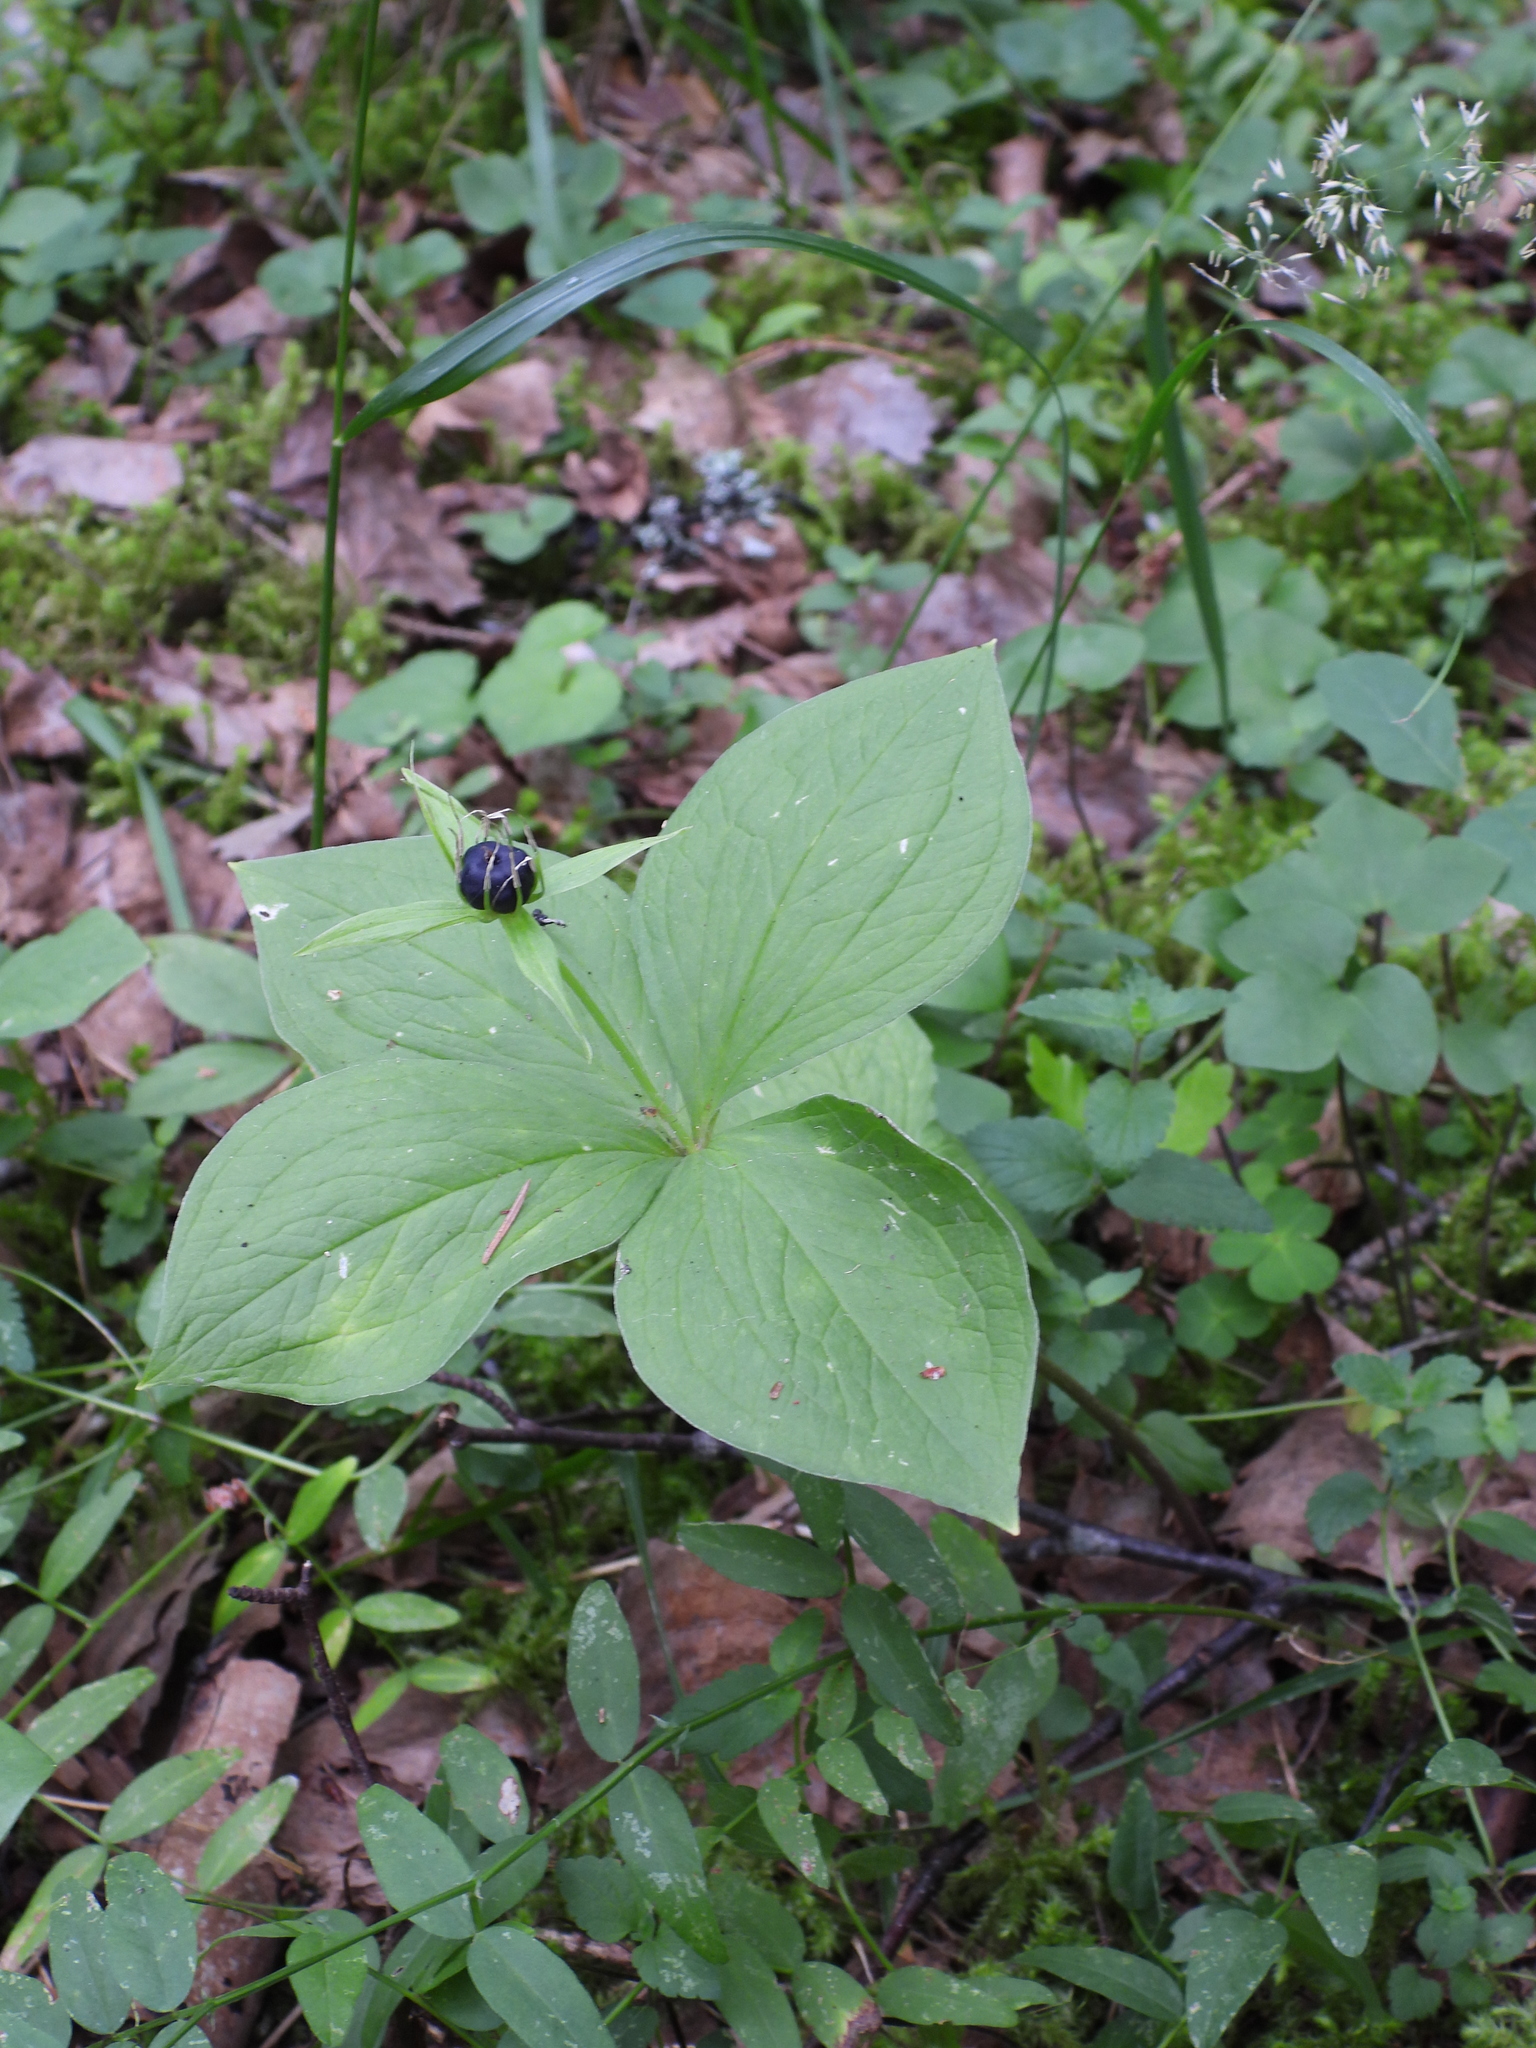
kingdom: Plantae
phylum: Tracheophyta
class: Liliopsida
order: Liliales
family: Melanthiaceae
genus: Paris
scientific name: Paris quadrifolia
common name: Herb-paris
